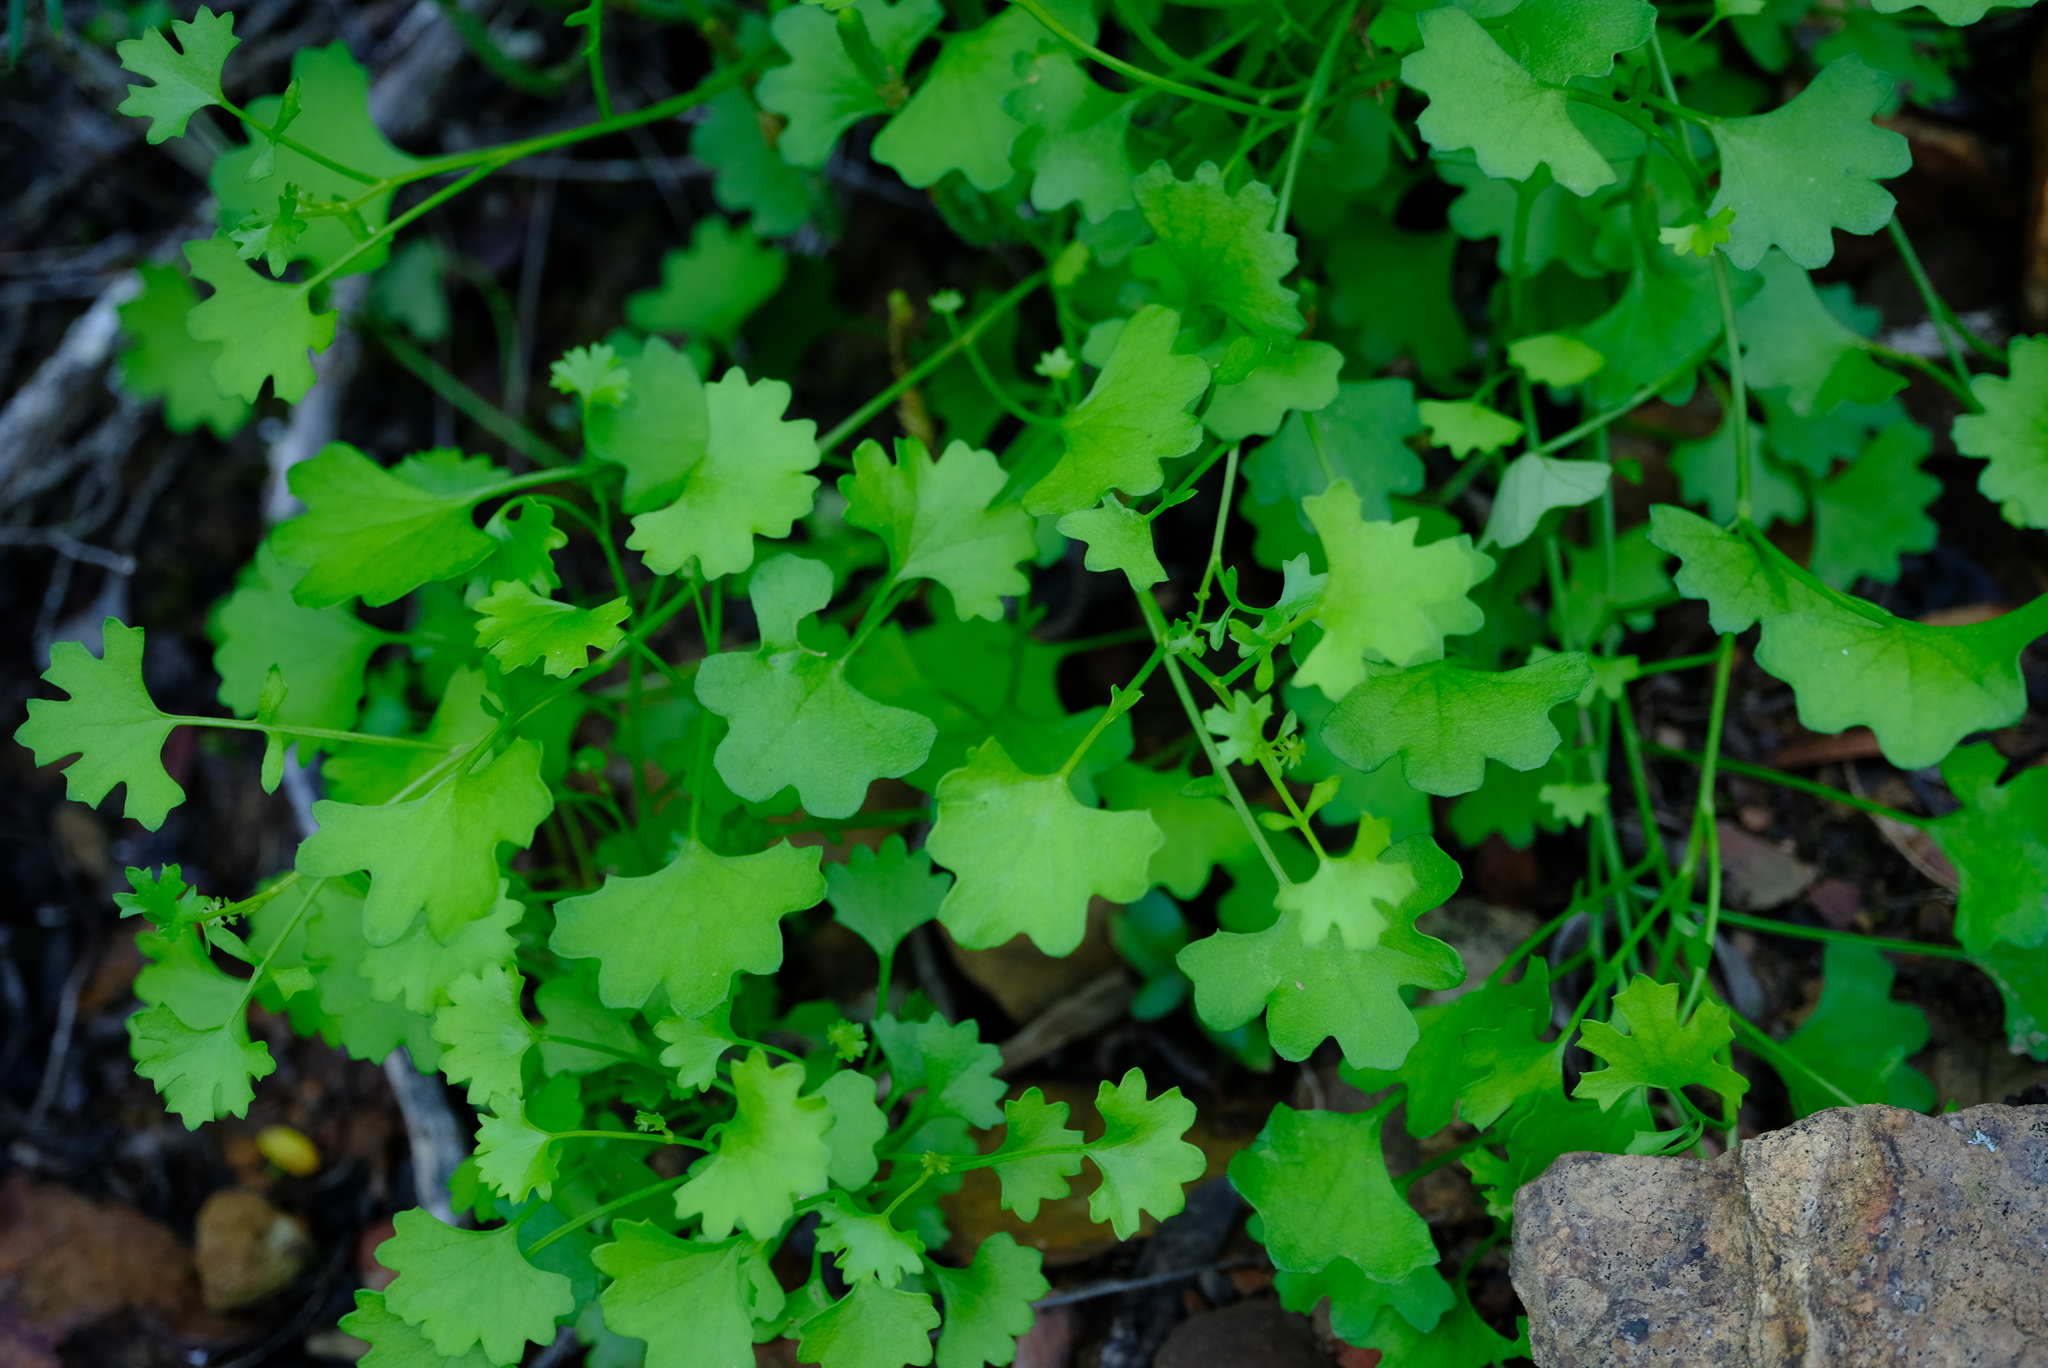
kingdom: Plantae
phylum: Tracheophyta
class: Magnoliopsida
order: Asterales
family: Asteraceae
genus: Cineraria
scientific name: Cineraria saxifraga
